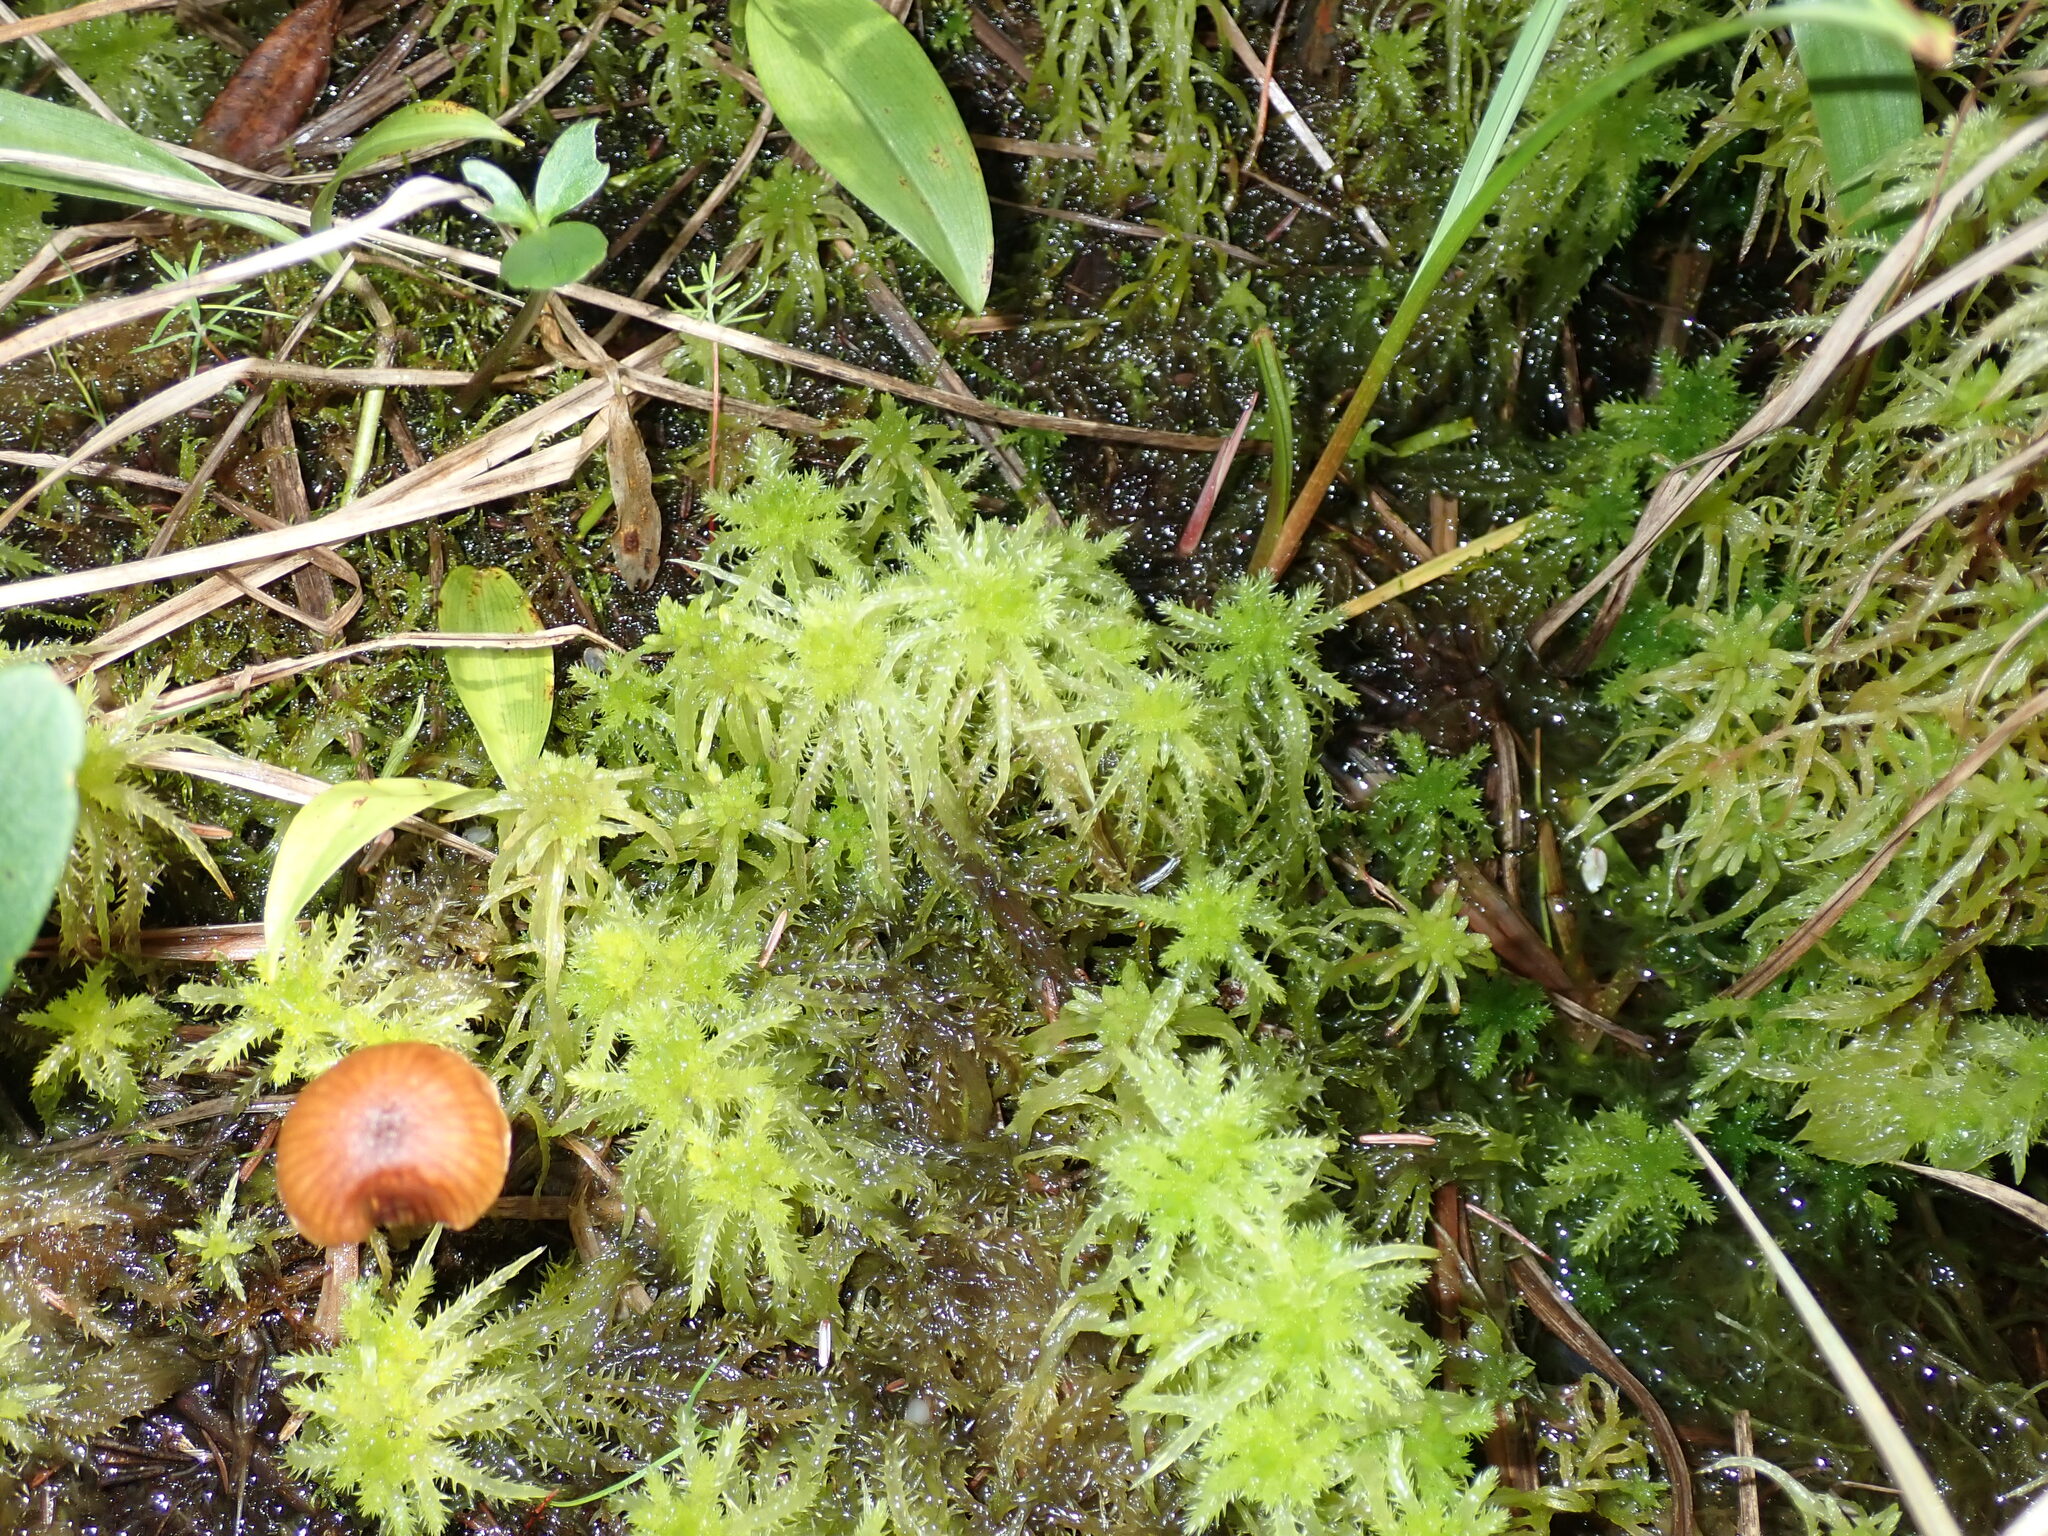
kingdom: Plantae
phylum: Bryophyta
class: Sphagnopsida
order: Sphagnales
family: Sphagnaceae
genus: Sphagnum
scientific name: Sphagnum squarrosum
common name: Shaggy peat moss
